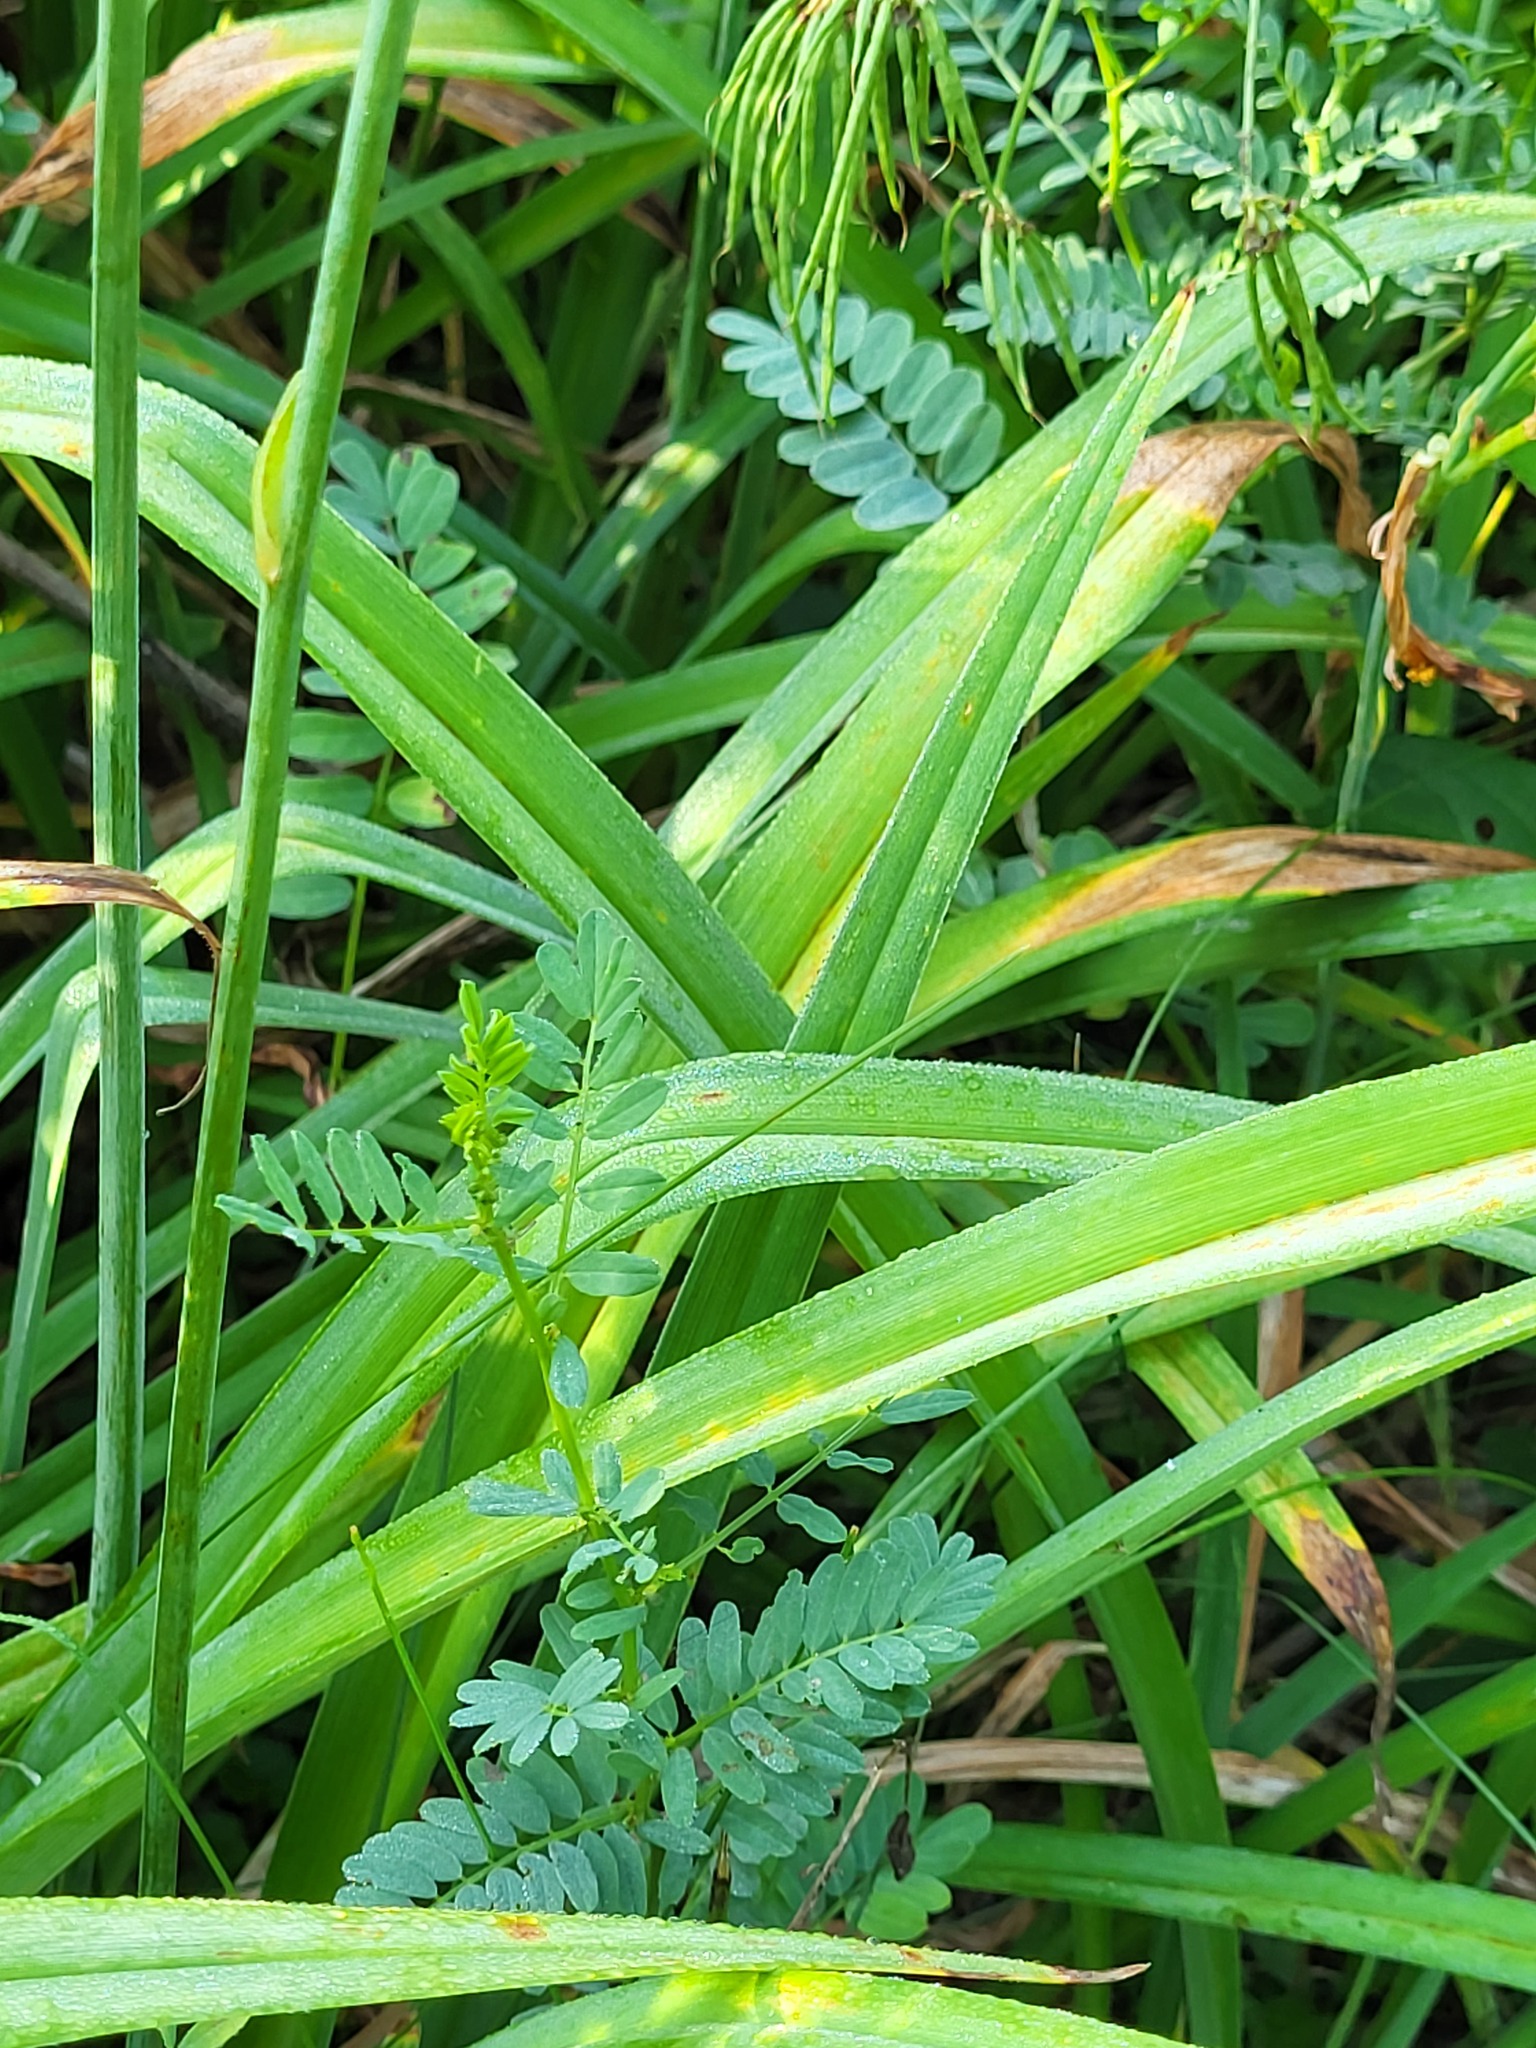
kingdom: Plantae
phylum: Tracheophyta
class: Liliopsida
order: Asparagales
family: Asphodelaceae
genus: Hemerocallis
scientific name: Hemerocallis fulva
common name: Orange day-lily
